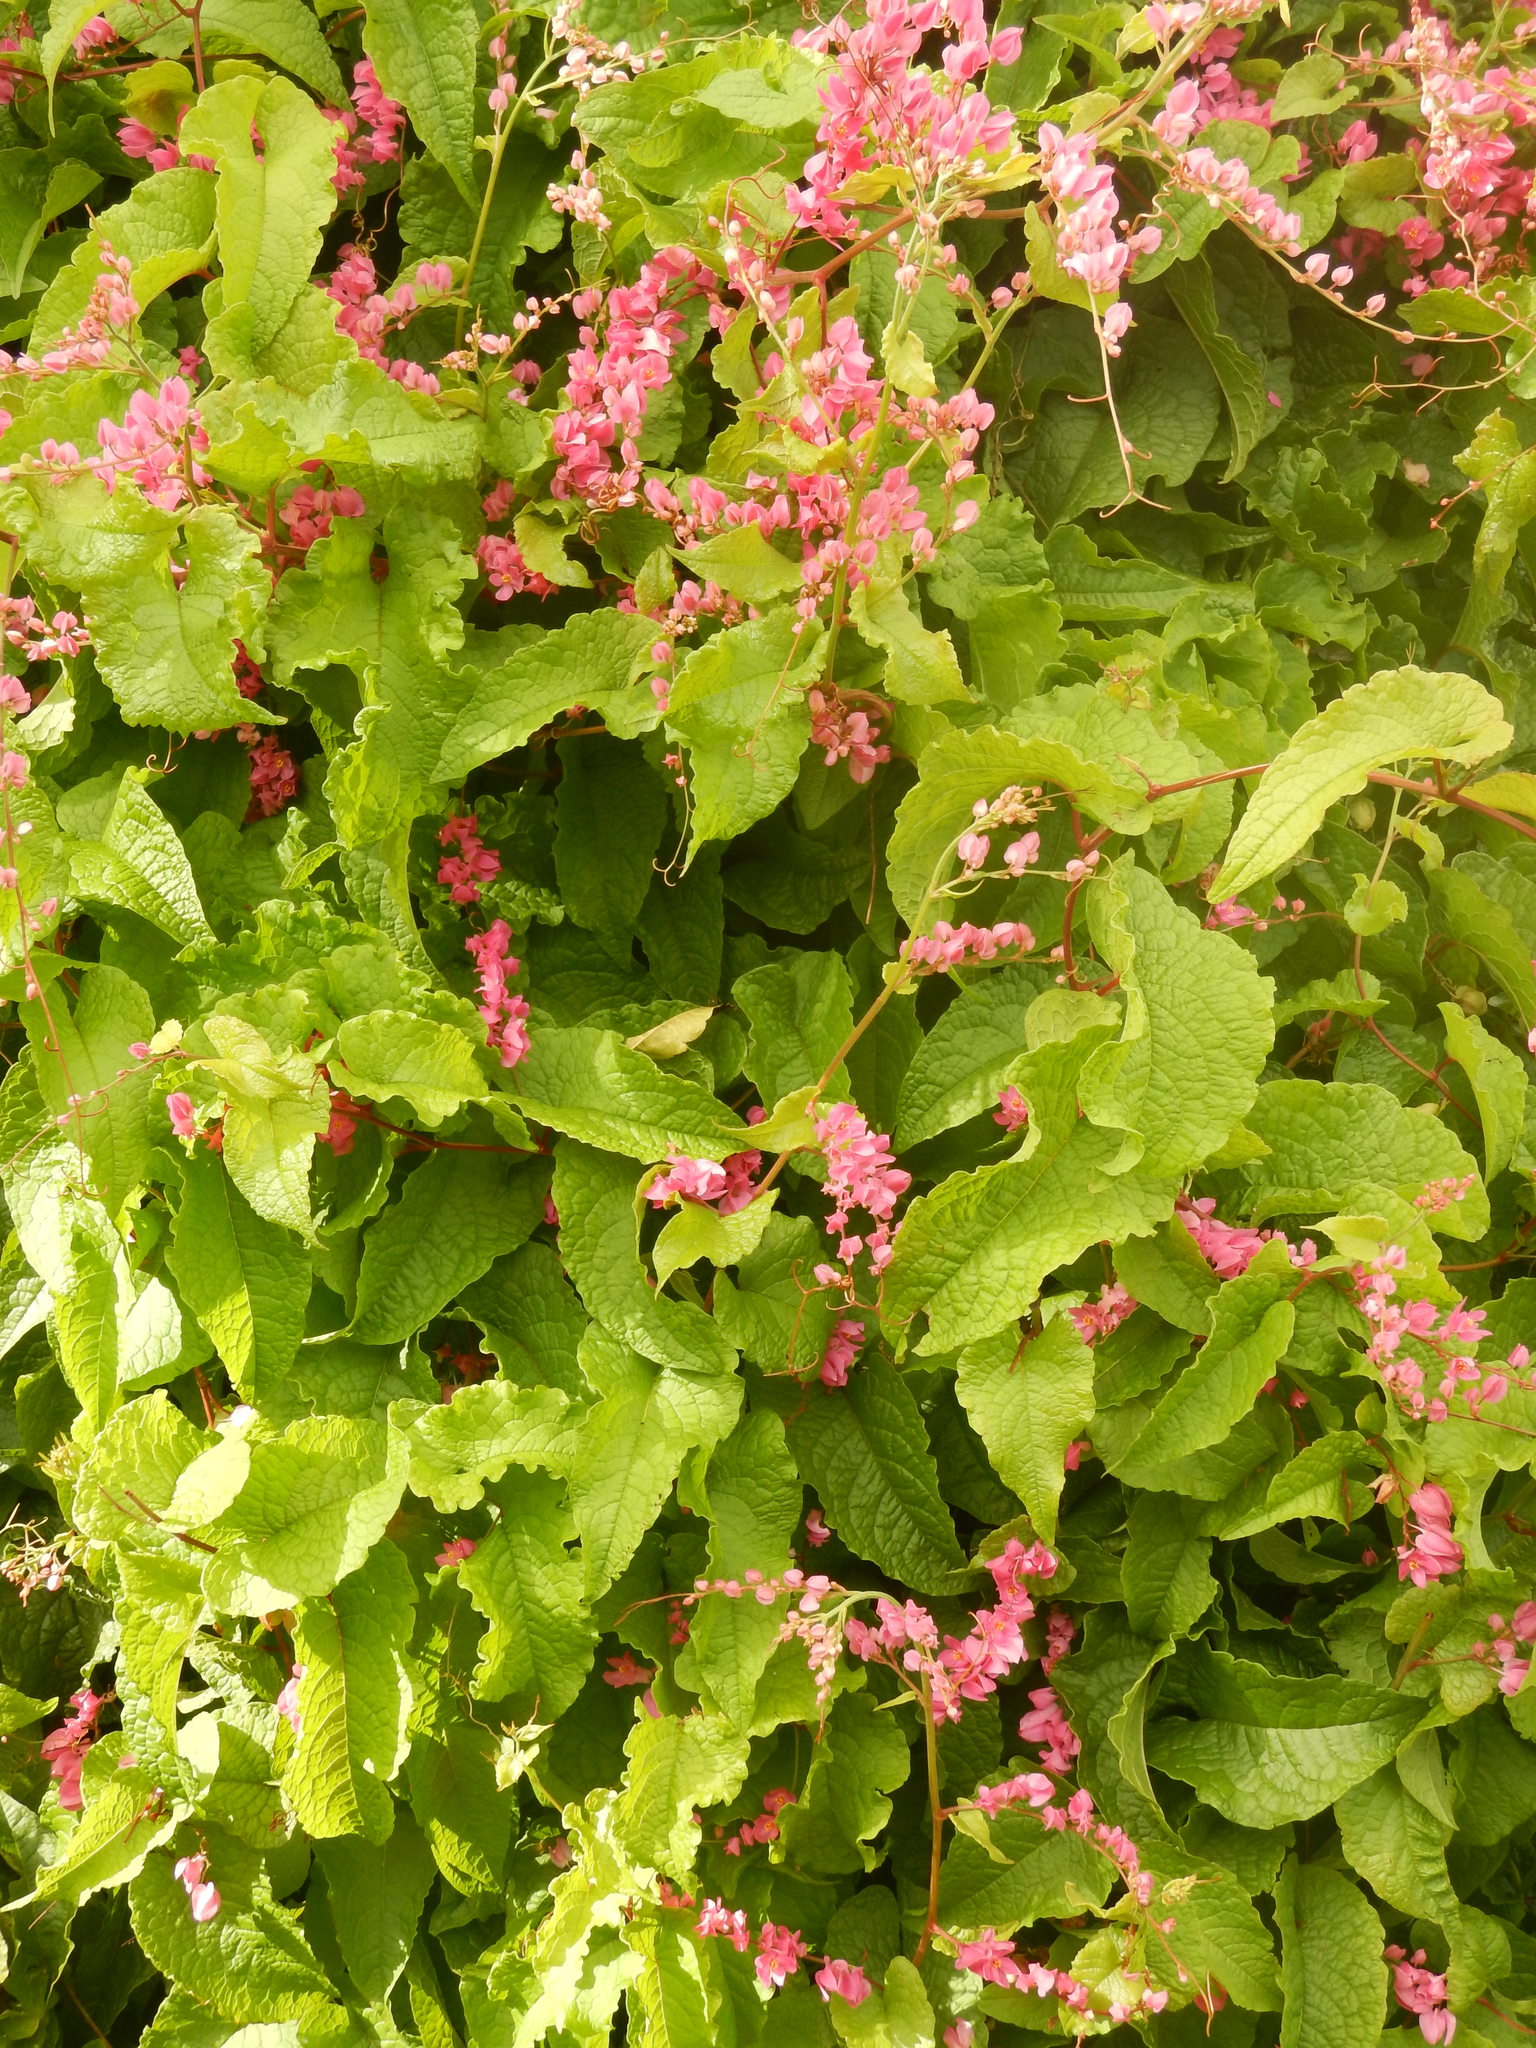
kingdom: Plantae
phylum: Tracheophyta
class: Magnoliopsida
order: Caryophyllales
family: Polygonaceae
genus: Antigonon
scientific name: Antigonon leptopus
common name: Coral vine
